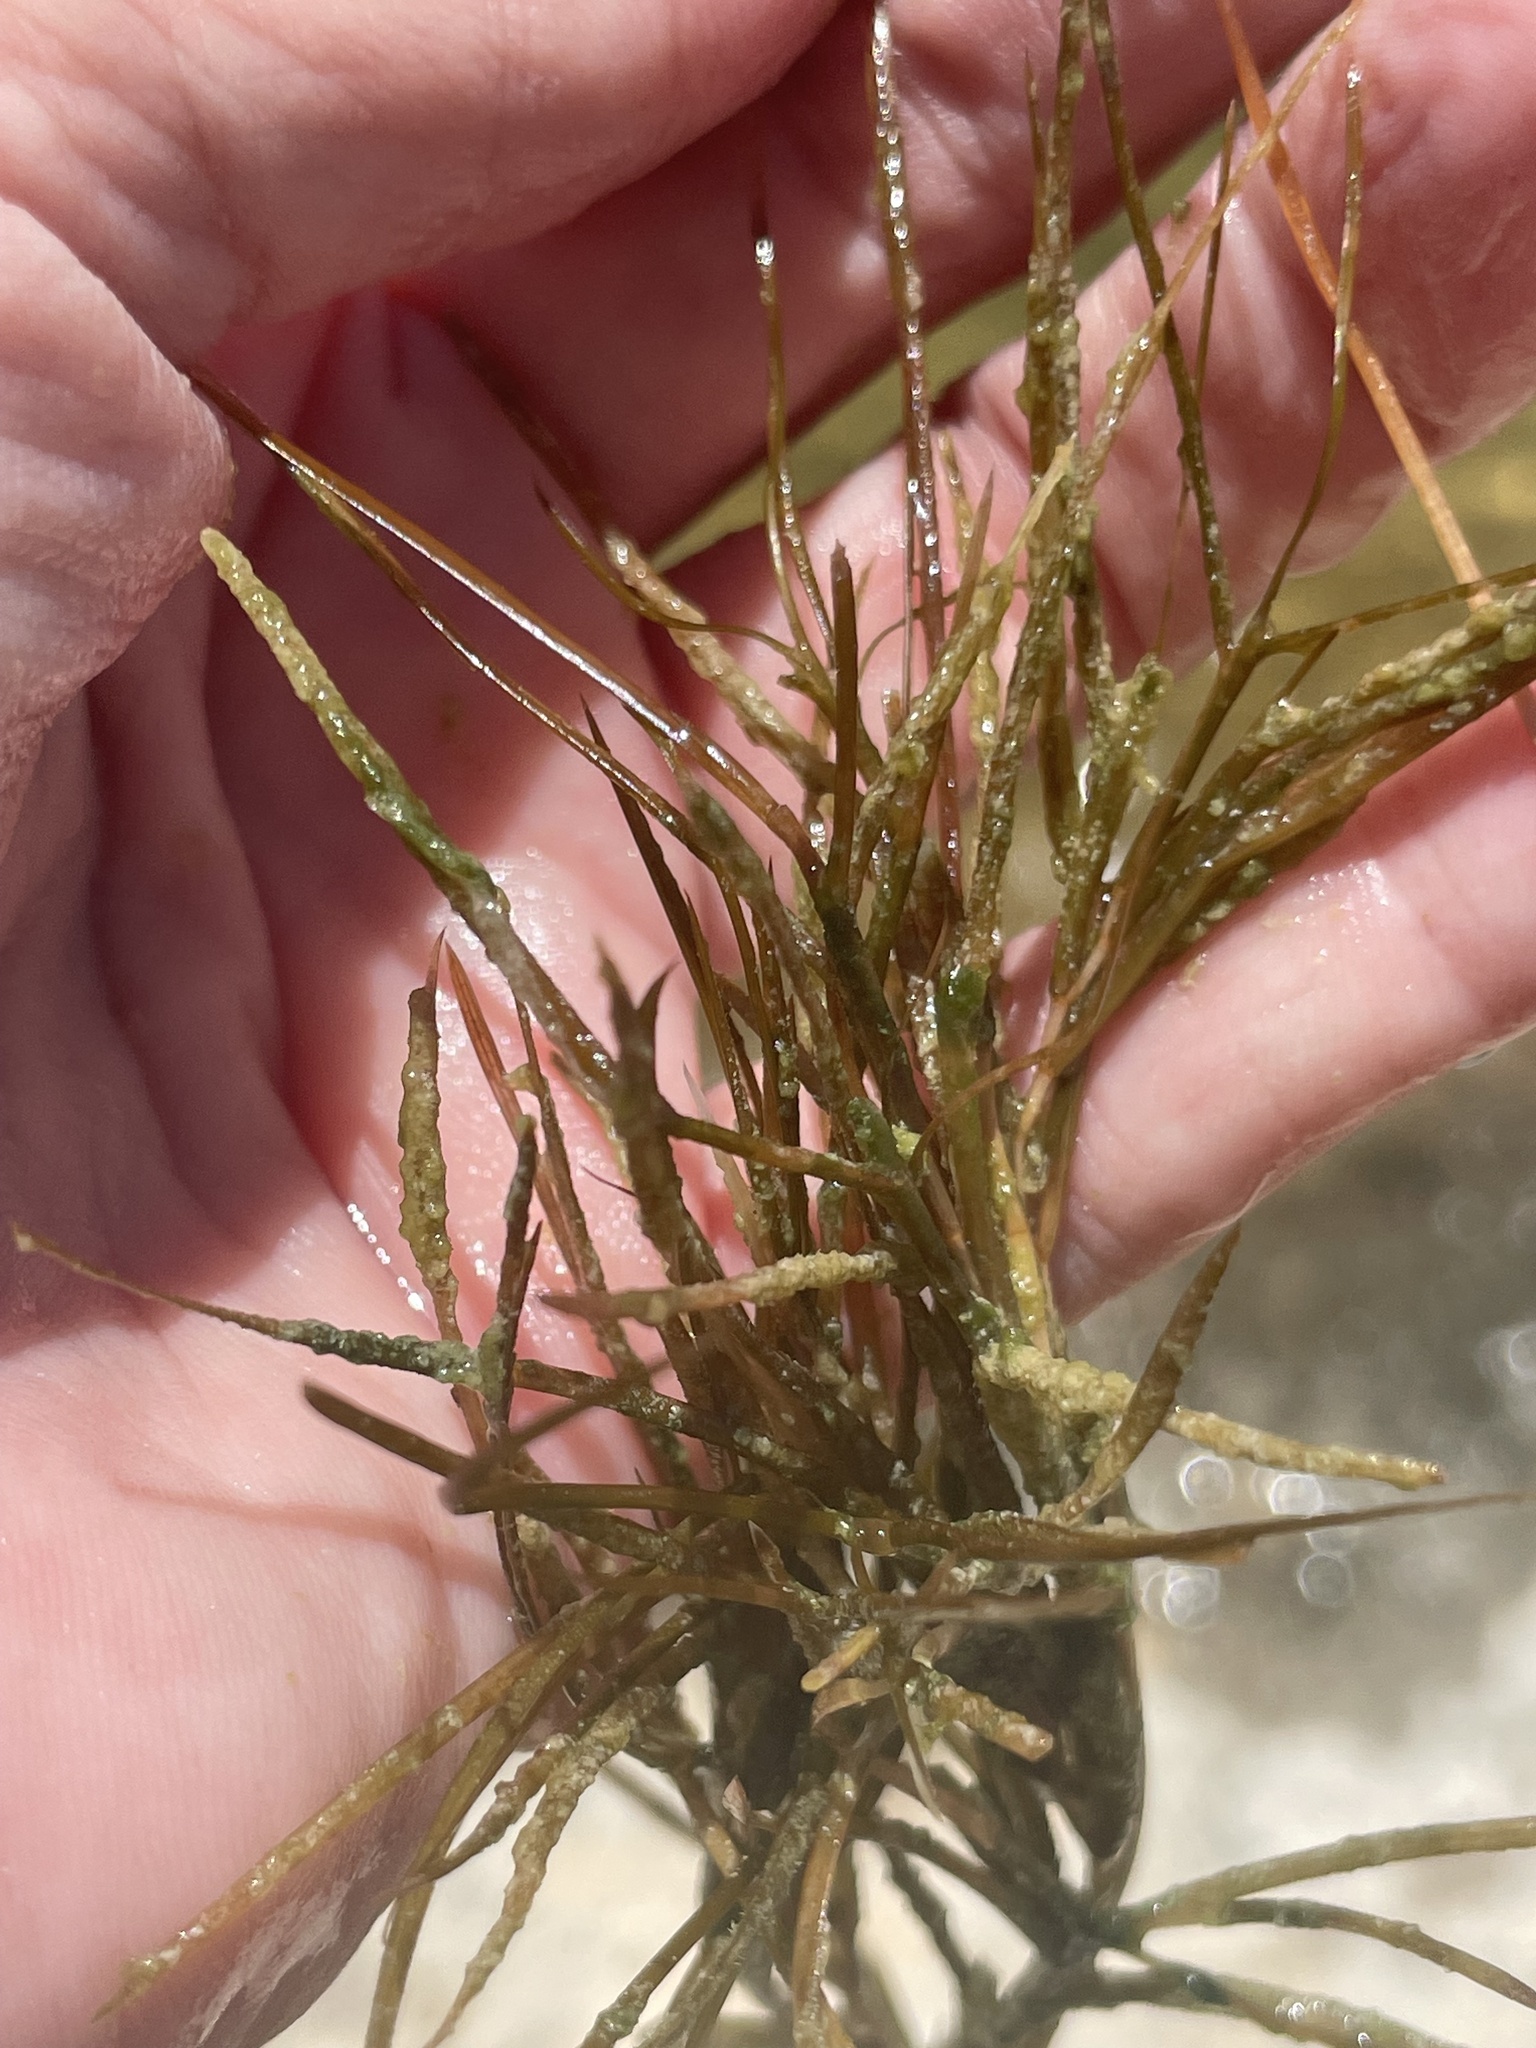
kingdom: Plantae
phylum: Tracheophyta
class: Liliopsida
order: Alismatales
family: Potamogetonaceae
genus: Stuckenia
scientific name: Stuckenia pectinata
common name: Sago pondweed
